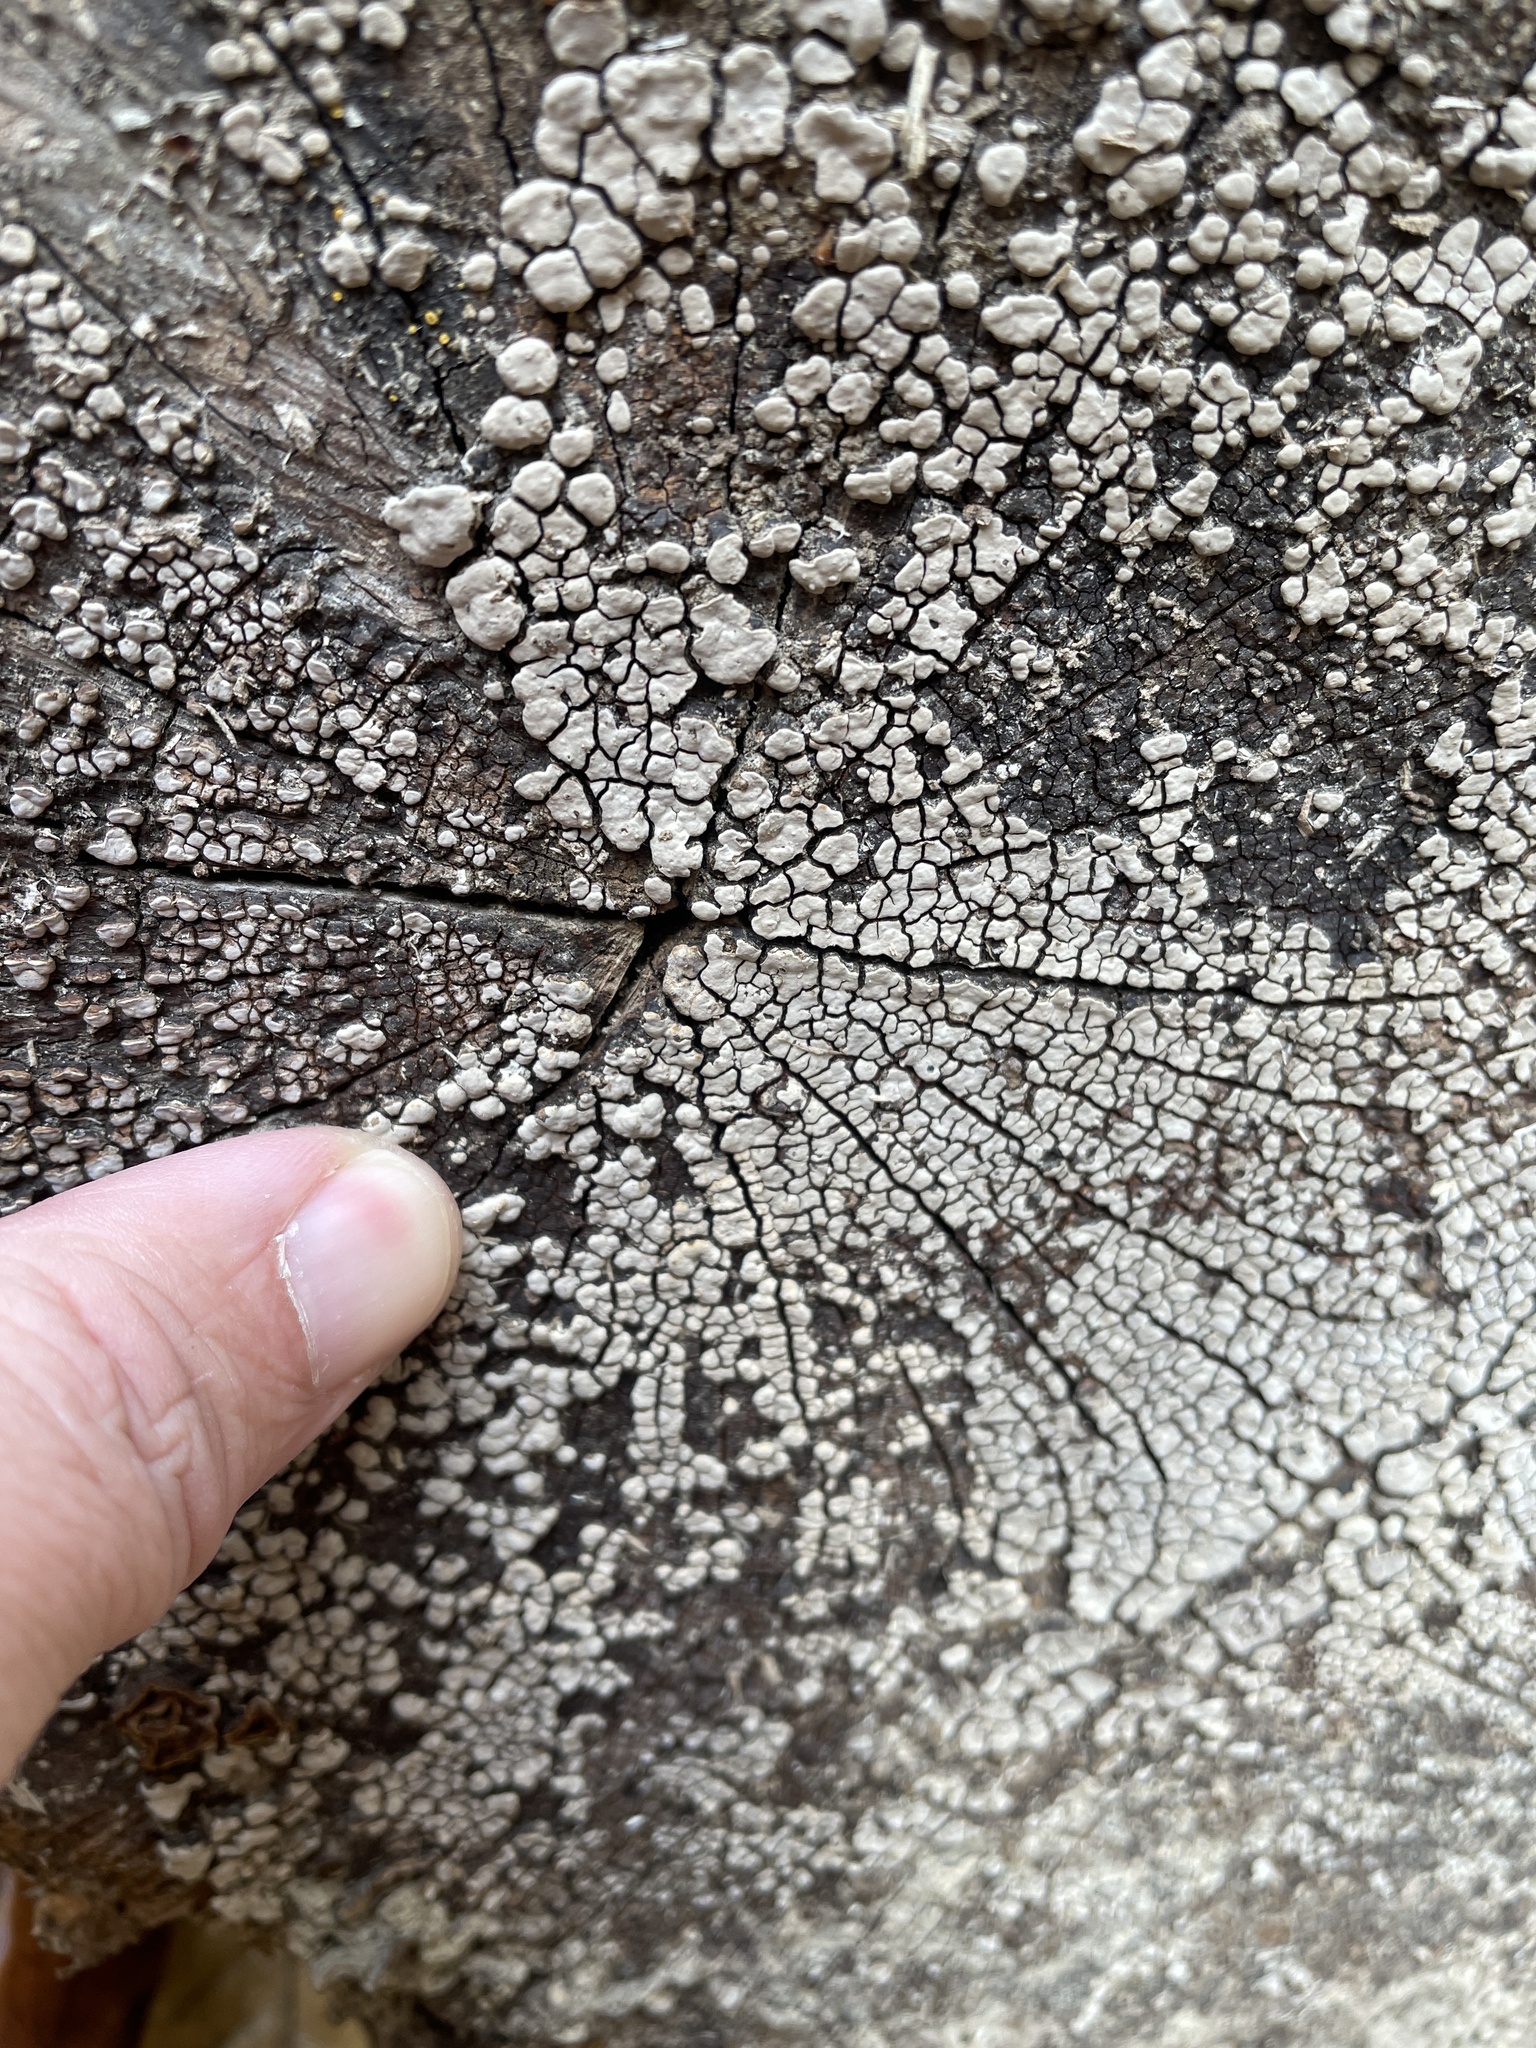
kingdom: Fungi
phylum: Basidiomycota
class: Agaricomycetes
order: Russulales
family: Stereaceae
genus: Xylobolus
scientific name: Xylobolus frustulatus
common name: Ceramic parchment
